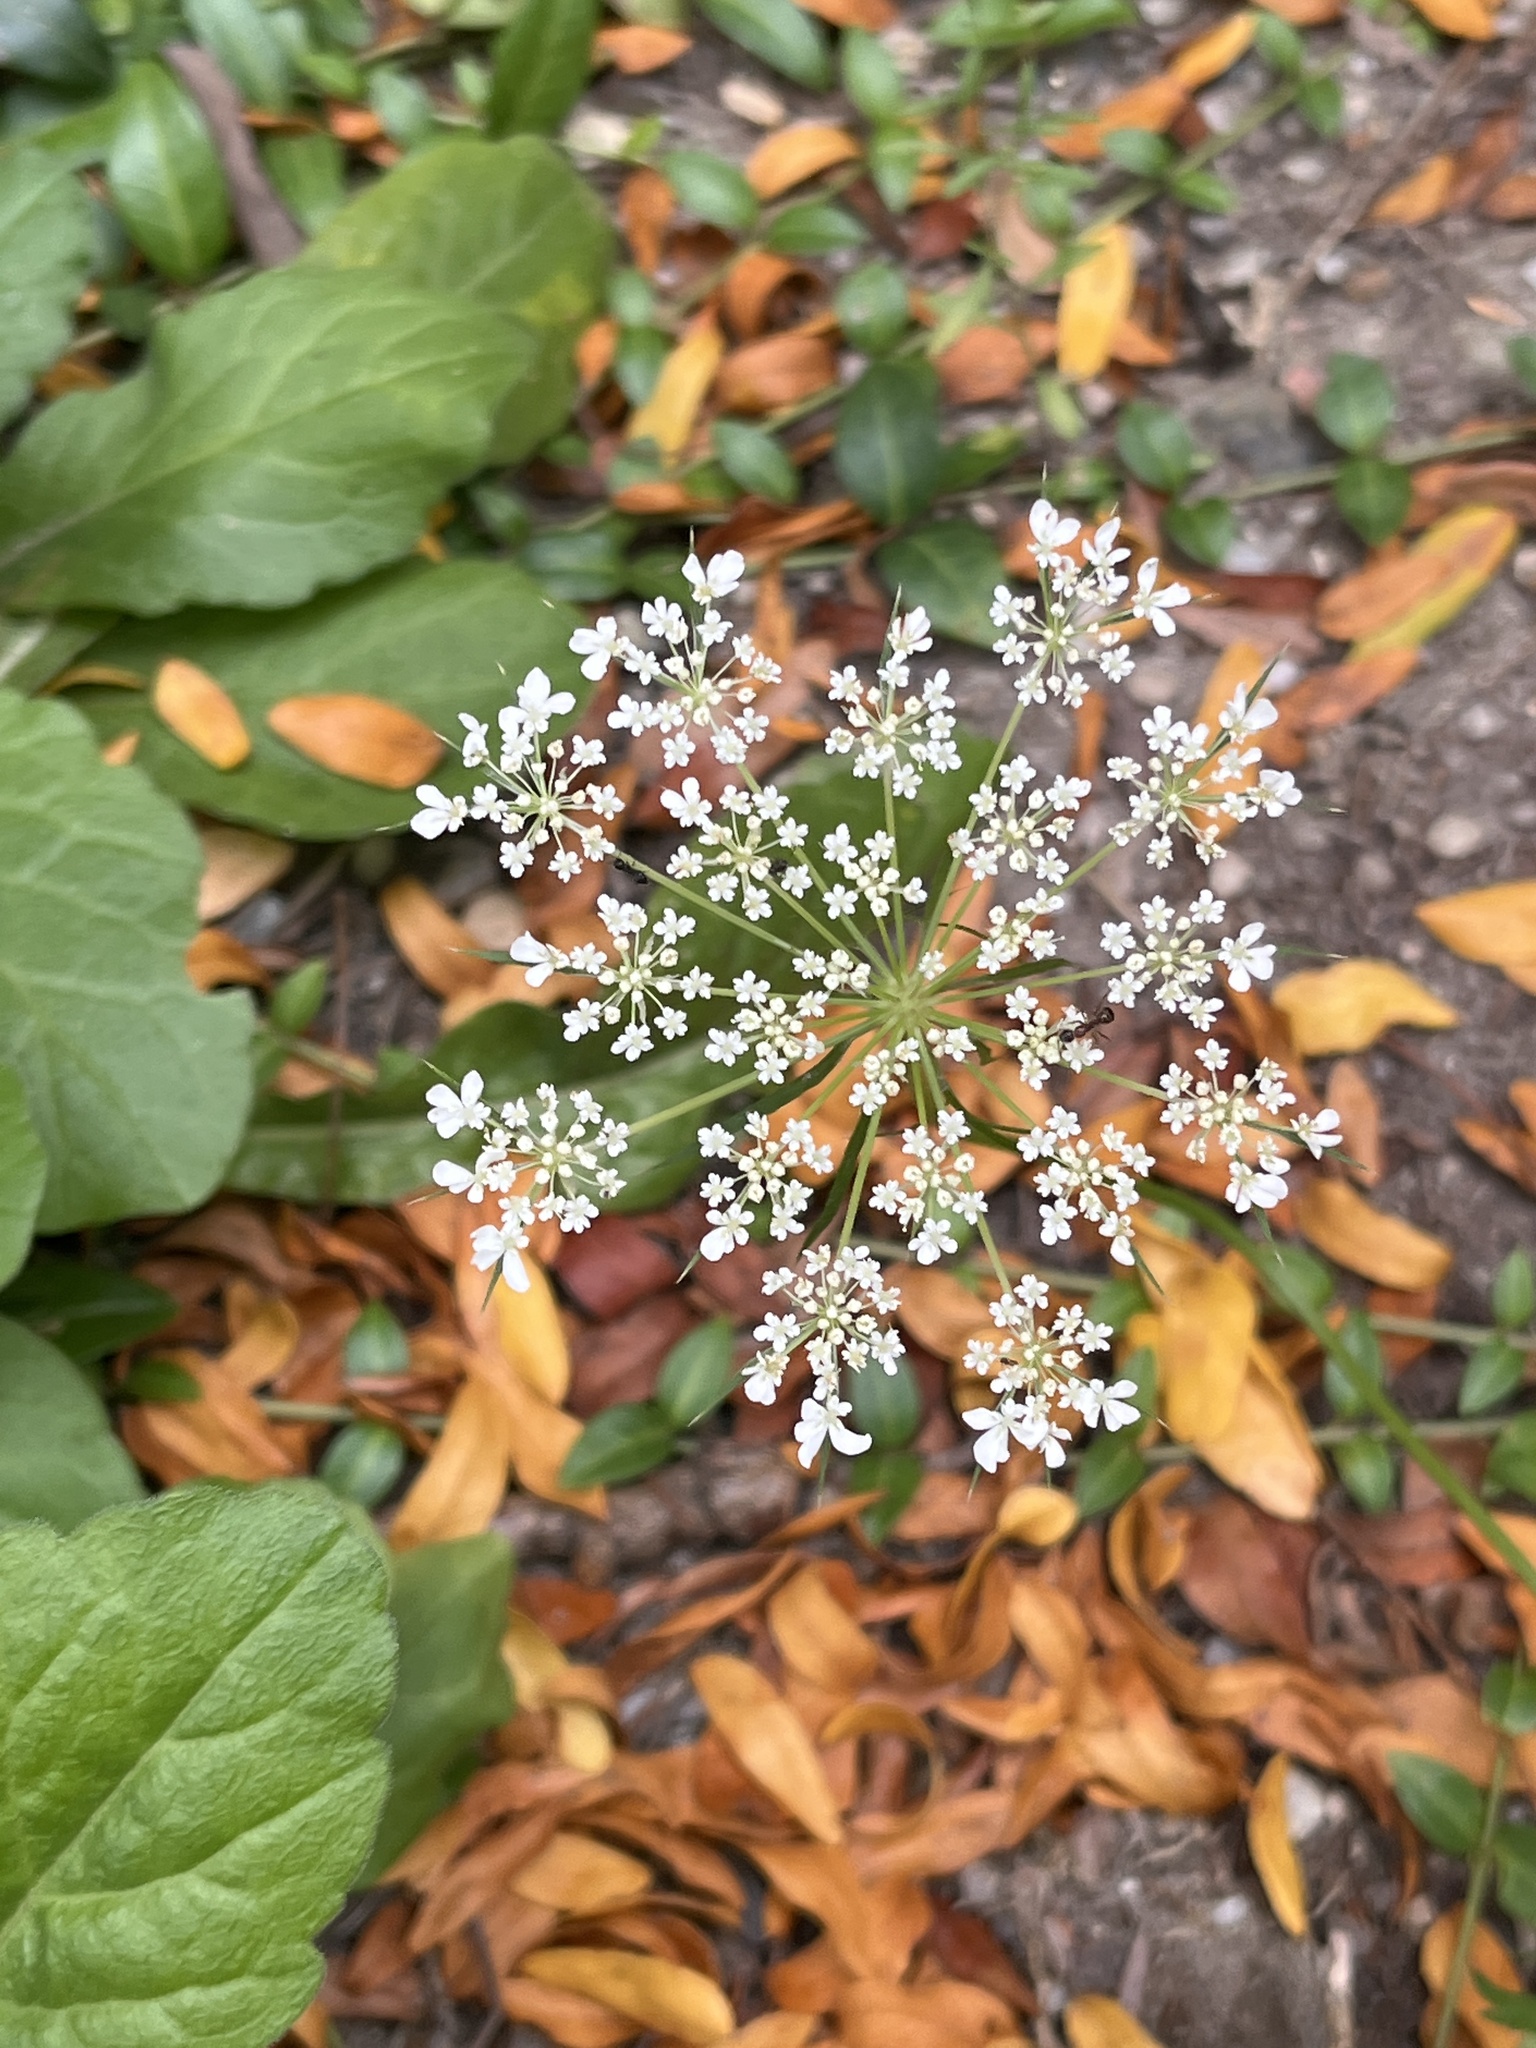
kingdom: Plantae
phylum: Tracheophyta
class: Magnoliopsida
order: Apiales
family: Apiaceae
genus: Daucus
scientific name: Daucus carota
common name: Wild carrot
